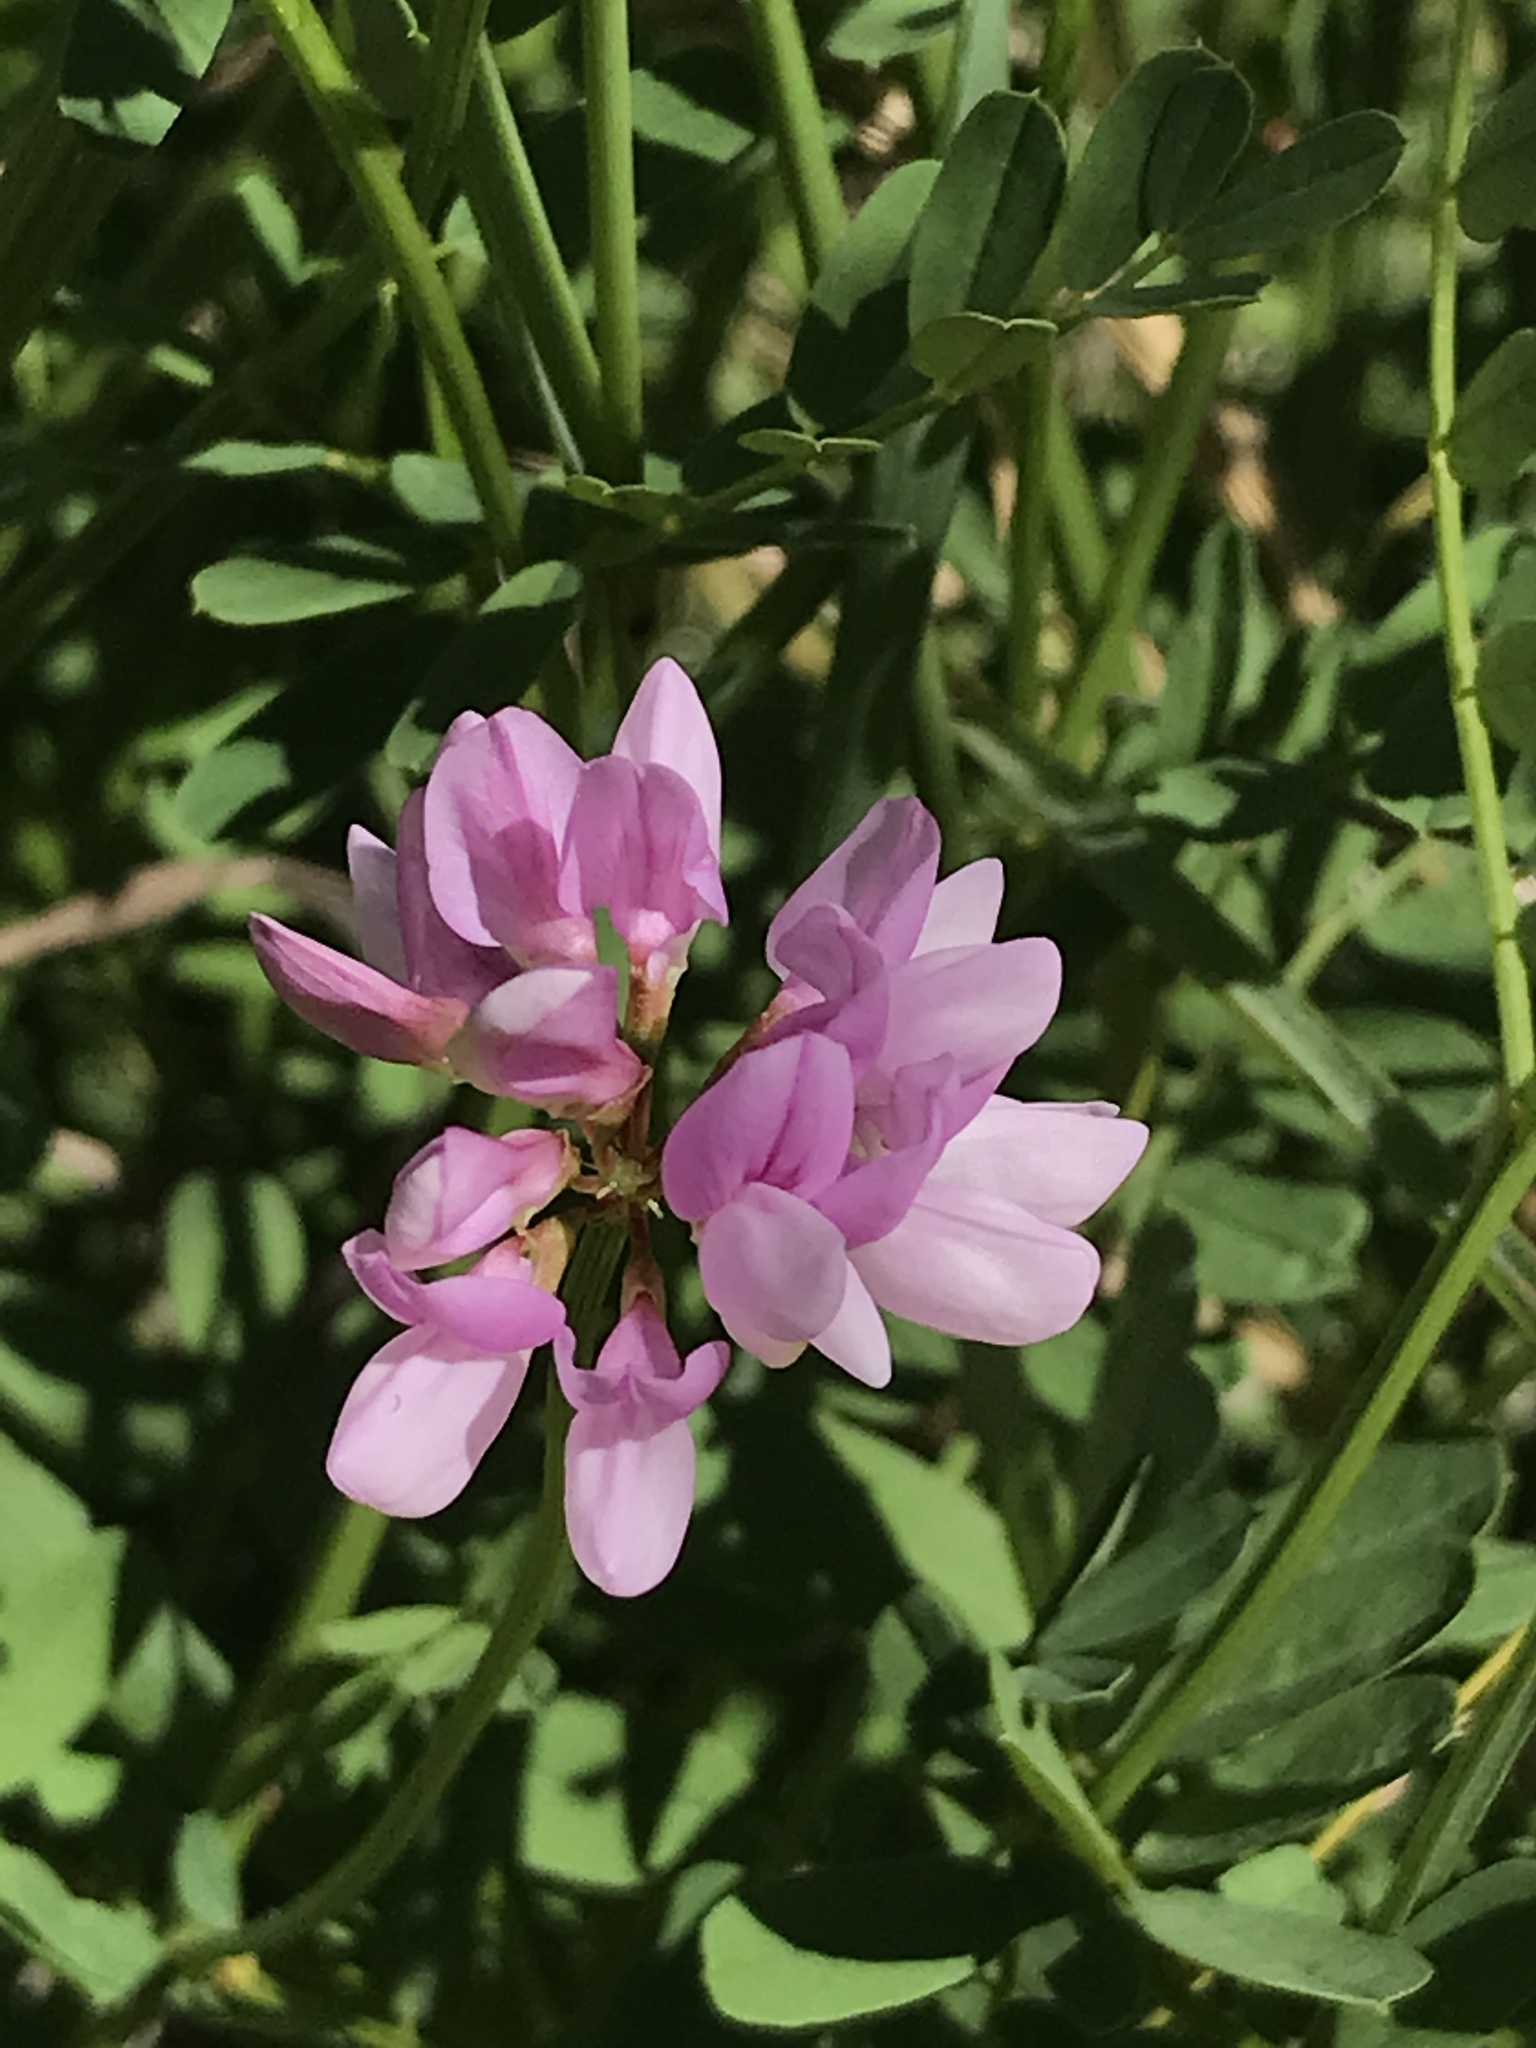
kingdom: Plantae
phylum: Tracheophyta
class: Magnoliopsida
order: Fabales
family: Fabaceae
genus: Coronilla
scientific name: Coronilla varia
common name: Crownvetch
